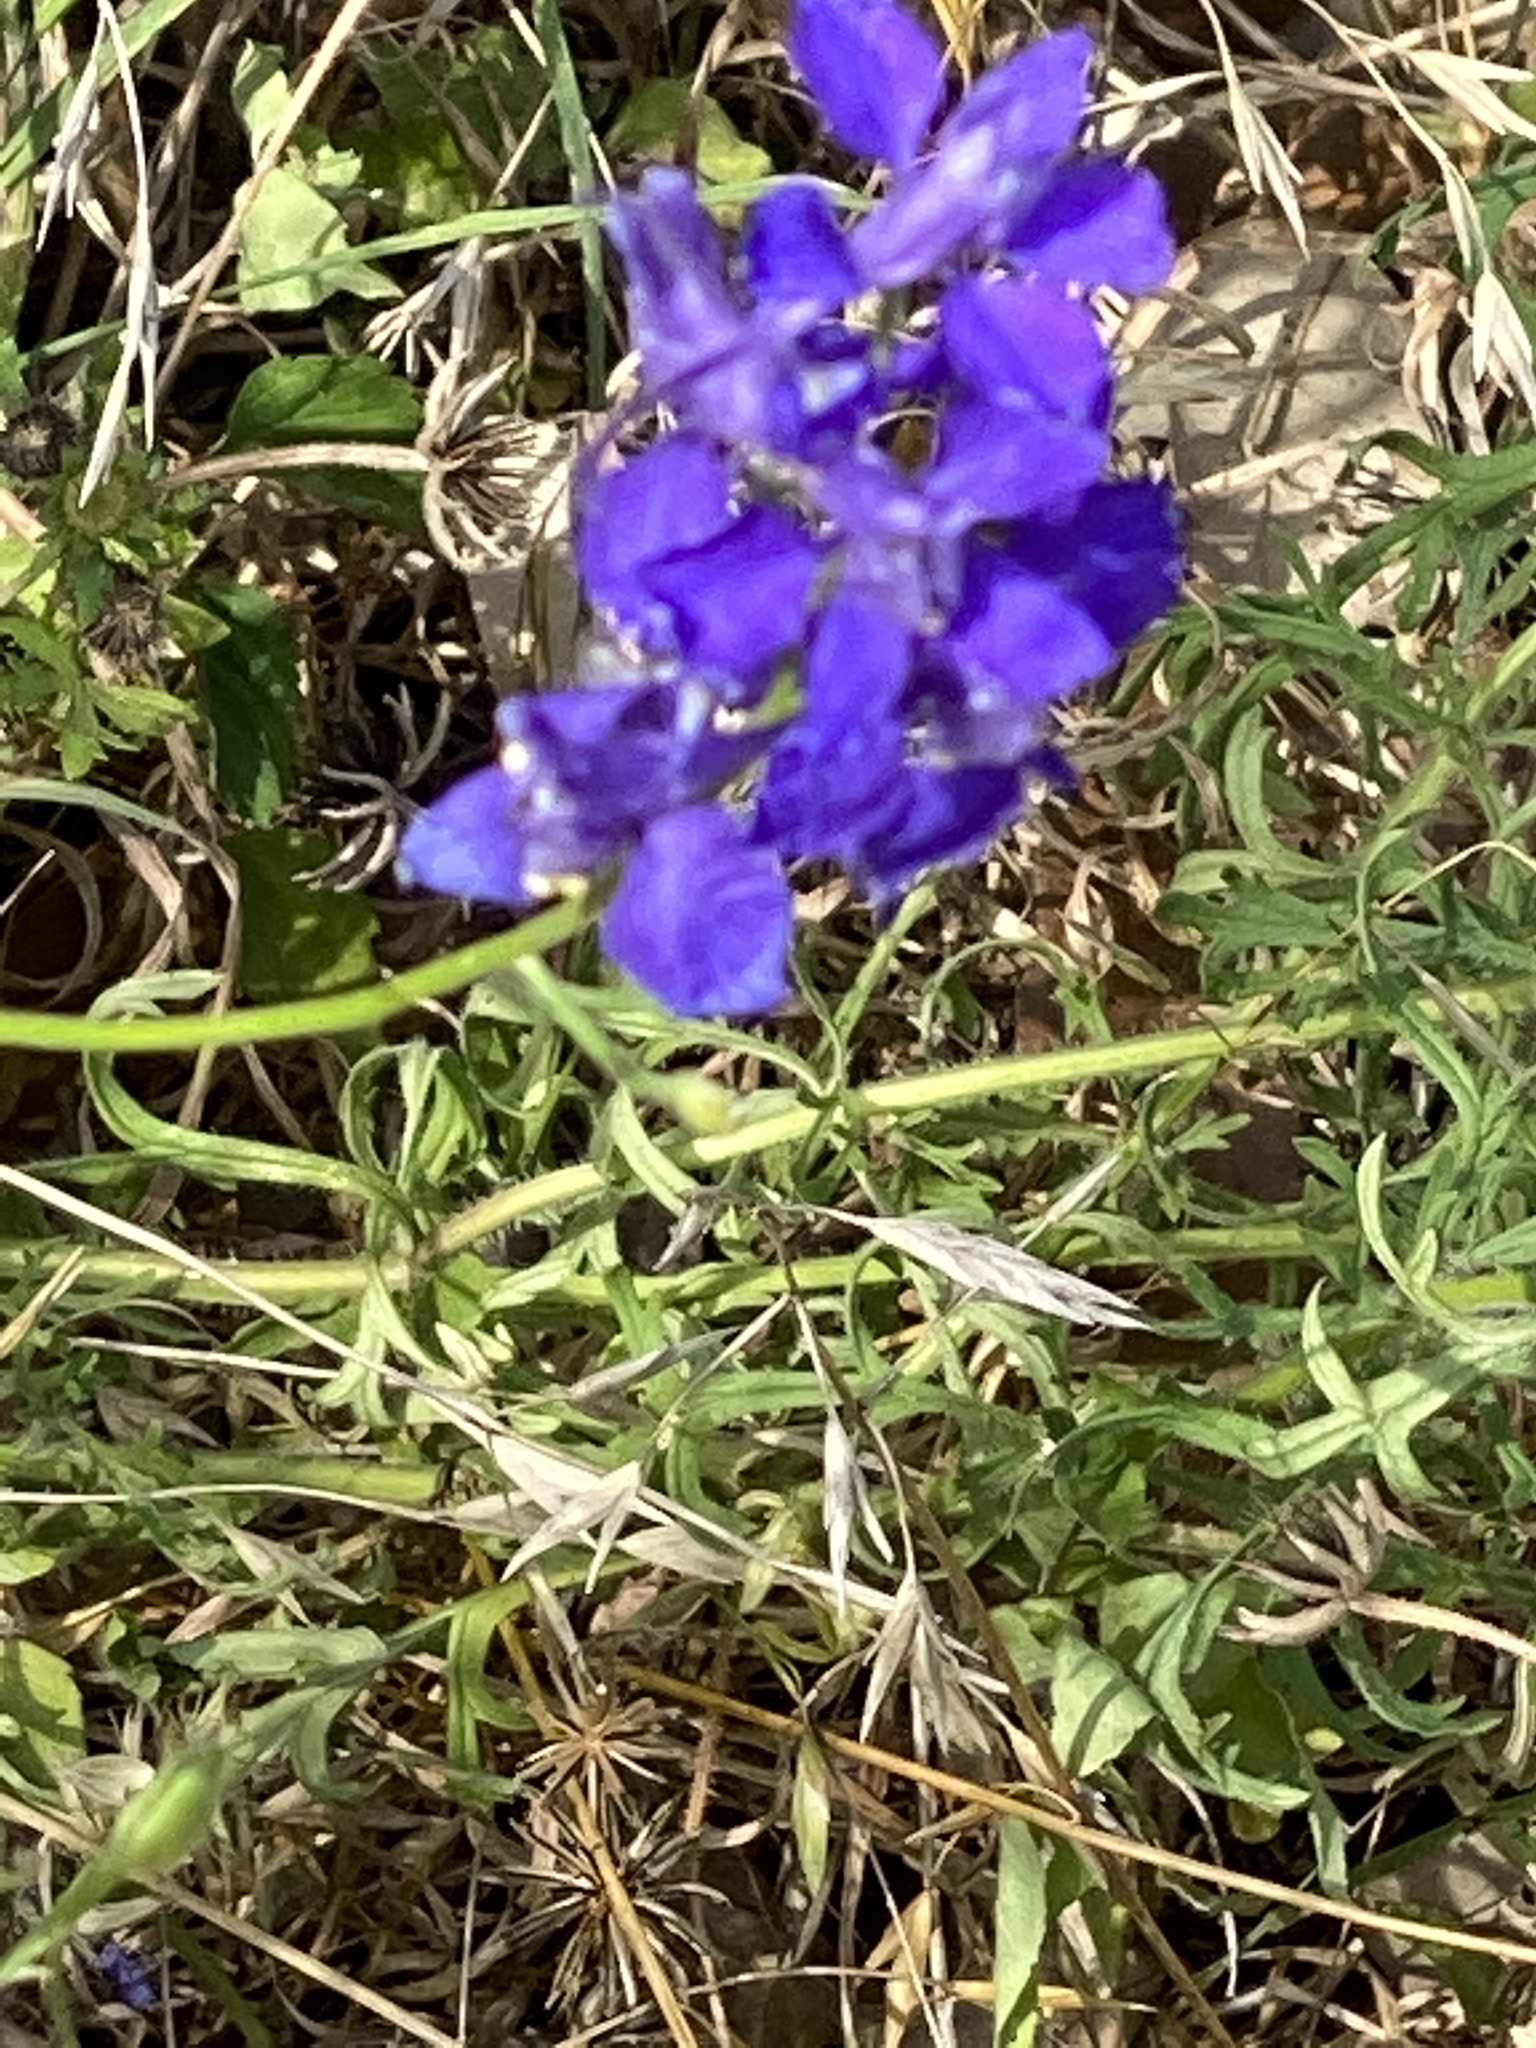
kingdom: Plantae
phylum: Tracheophyta
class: Magnoliopsida
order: Ranunculales
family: Ranunculaceae
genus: Delphinium
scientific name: Delphinium ajacis
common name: Doubtful knight's-spur
